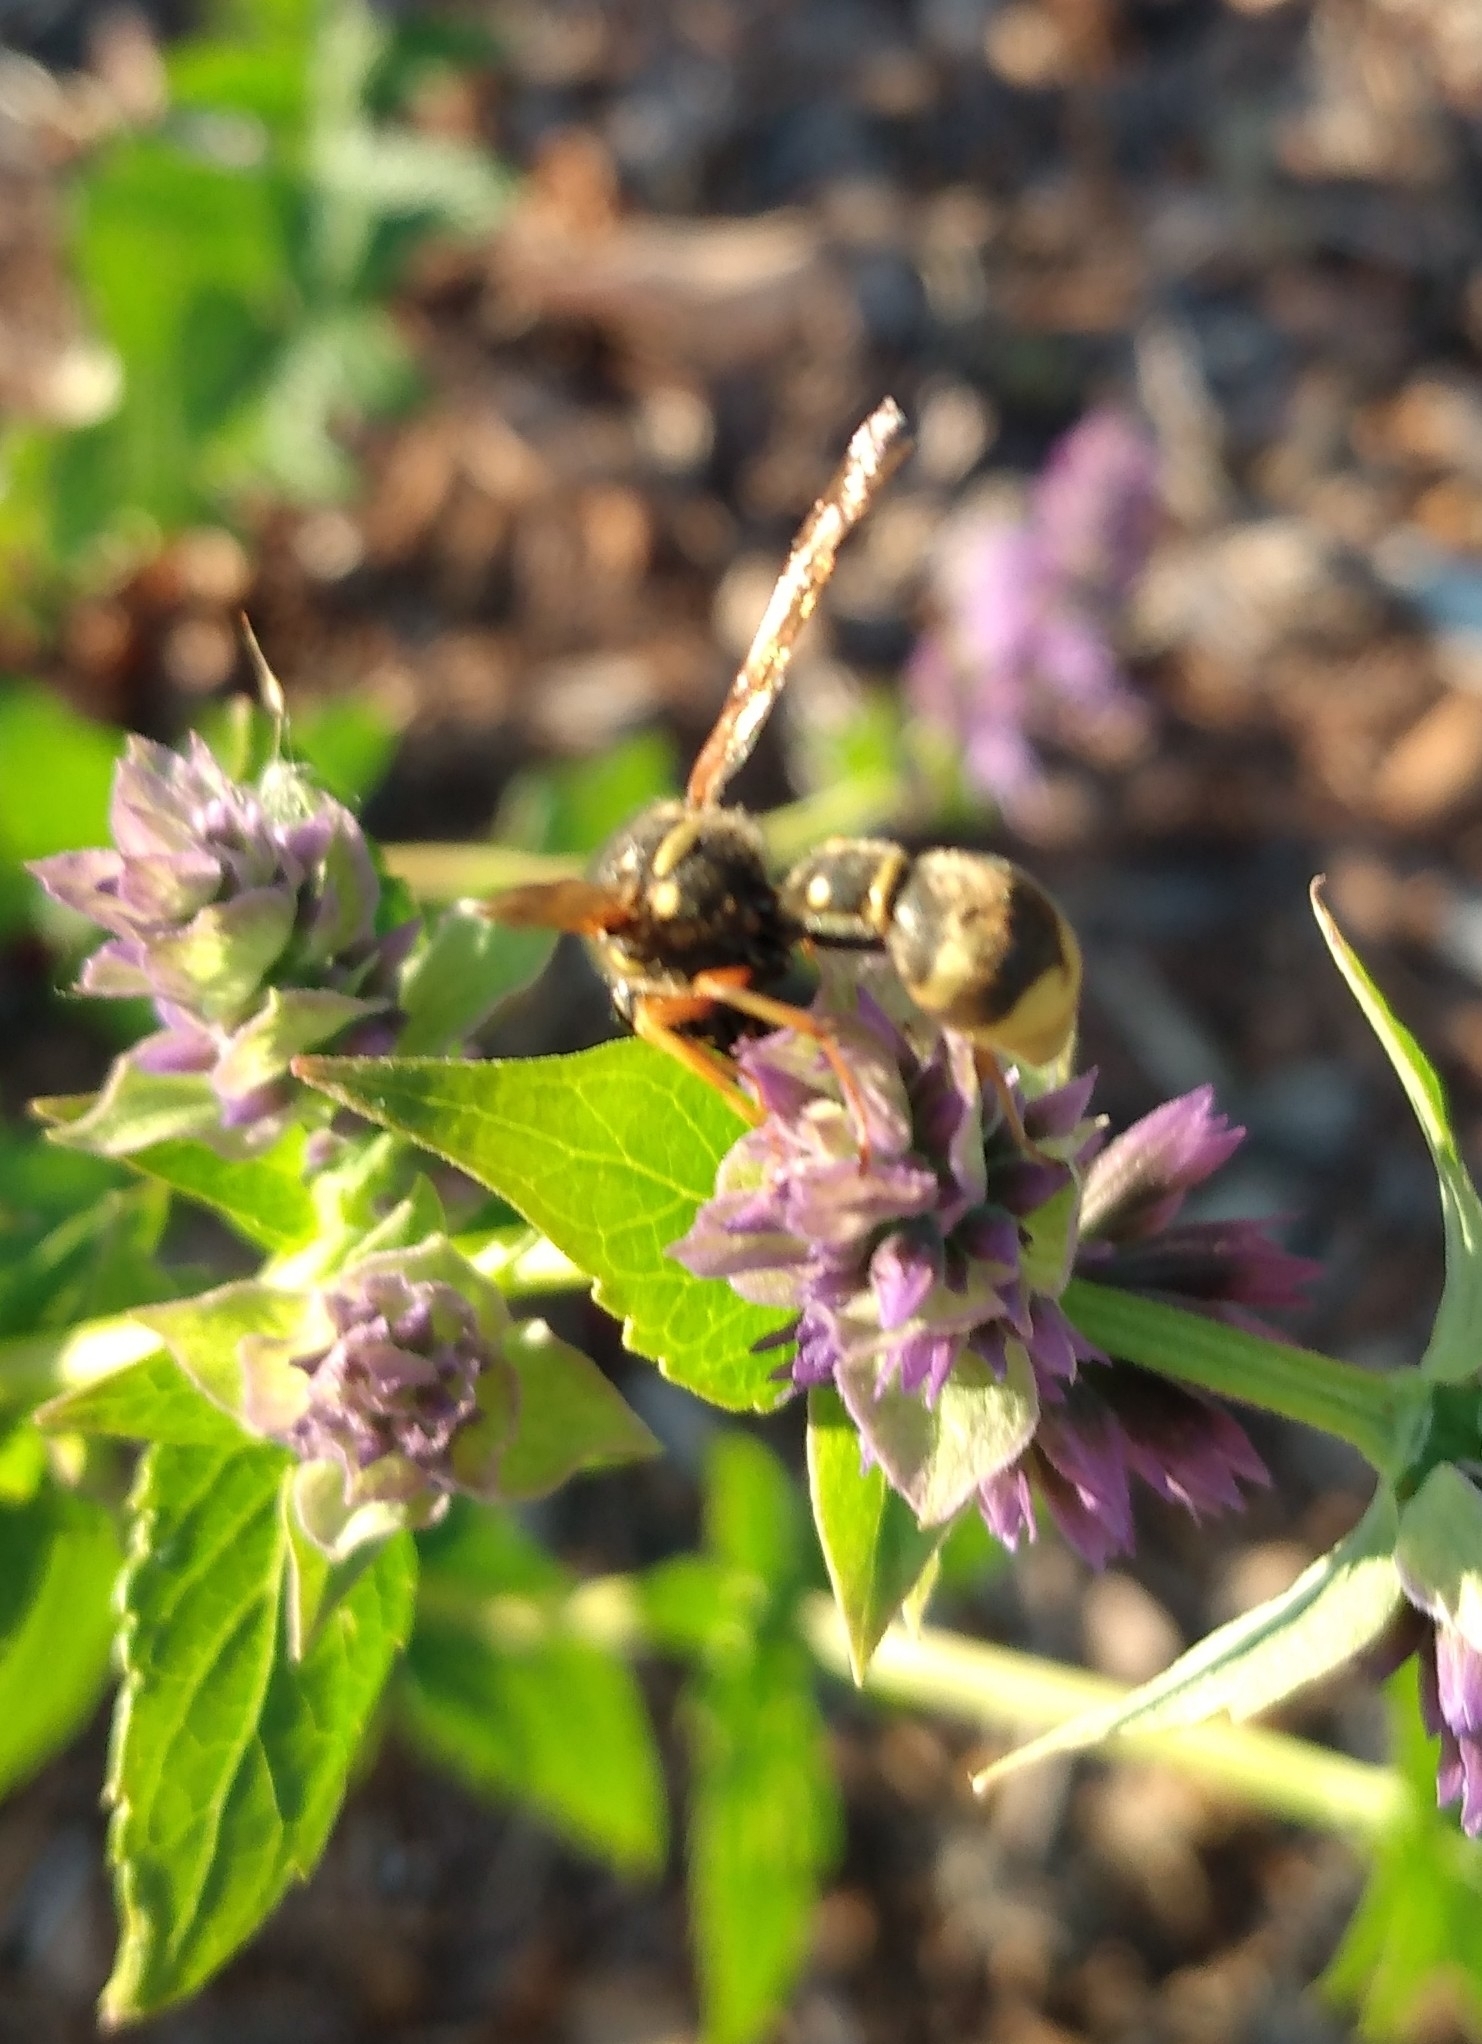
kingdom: Animalia
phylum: Arthropoda
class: Insecta
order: Hymenoptera
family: Vespidae
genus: Eumenes
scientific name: Eumenes crucifera
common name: Cross potter wasp
